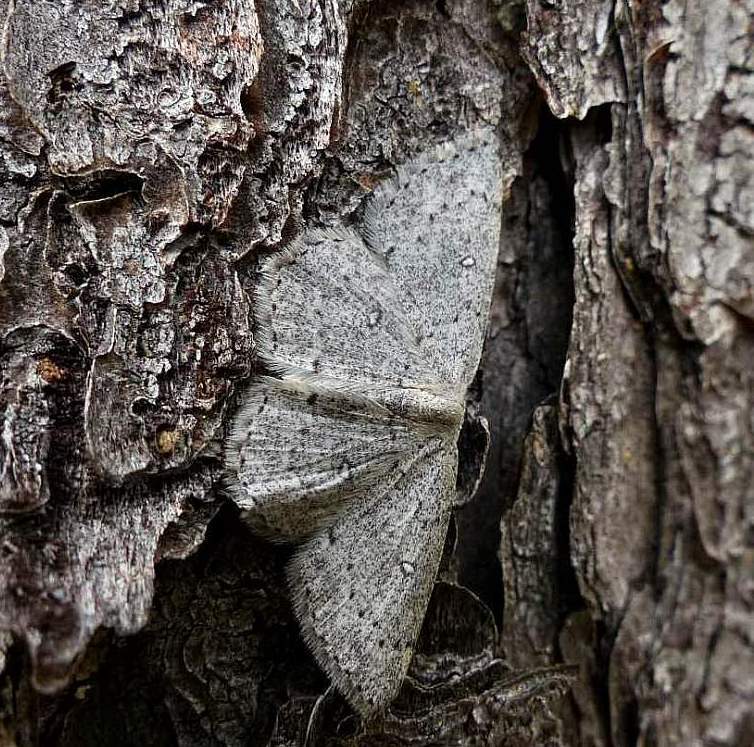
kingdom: Animalia
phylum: Arthropoda
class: Insecta
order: Lepidoptera
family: Geometridae
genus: Cyclophora
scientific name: Cyclophora pendulinaria
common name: Sweet fern geometer
